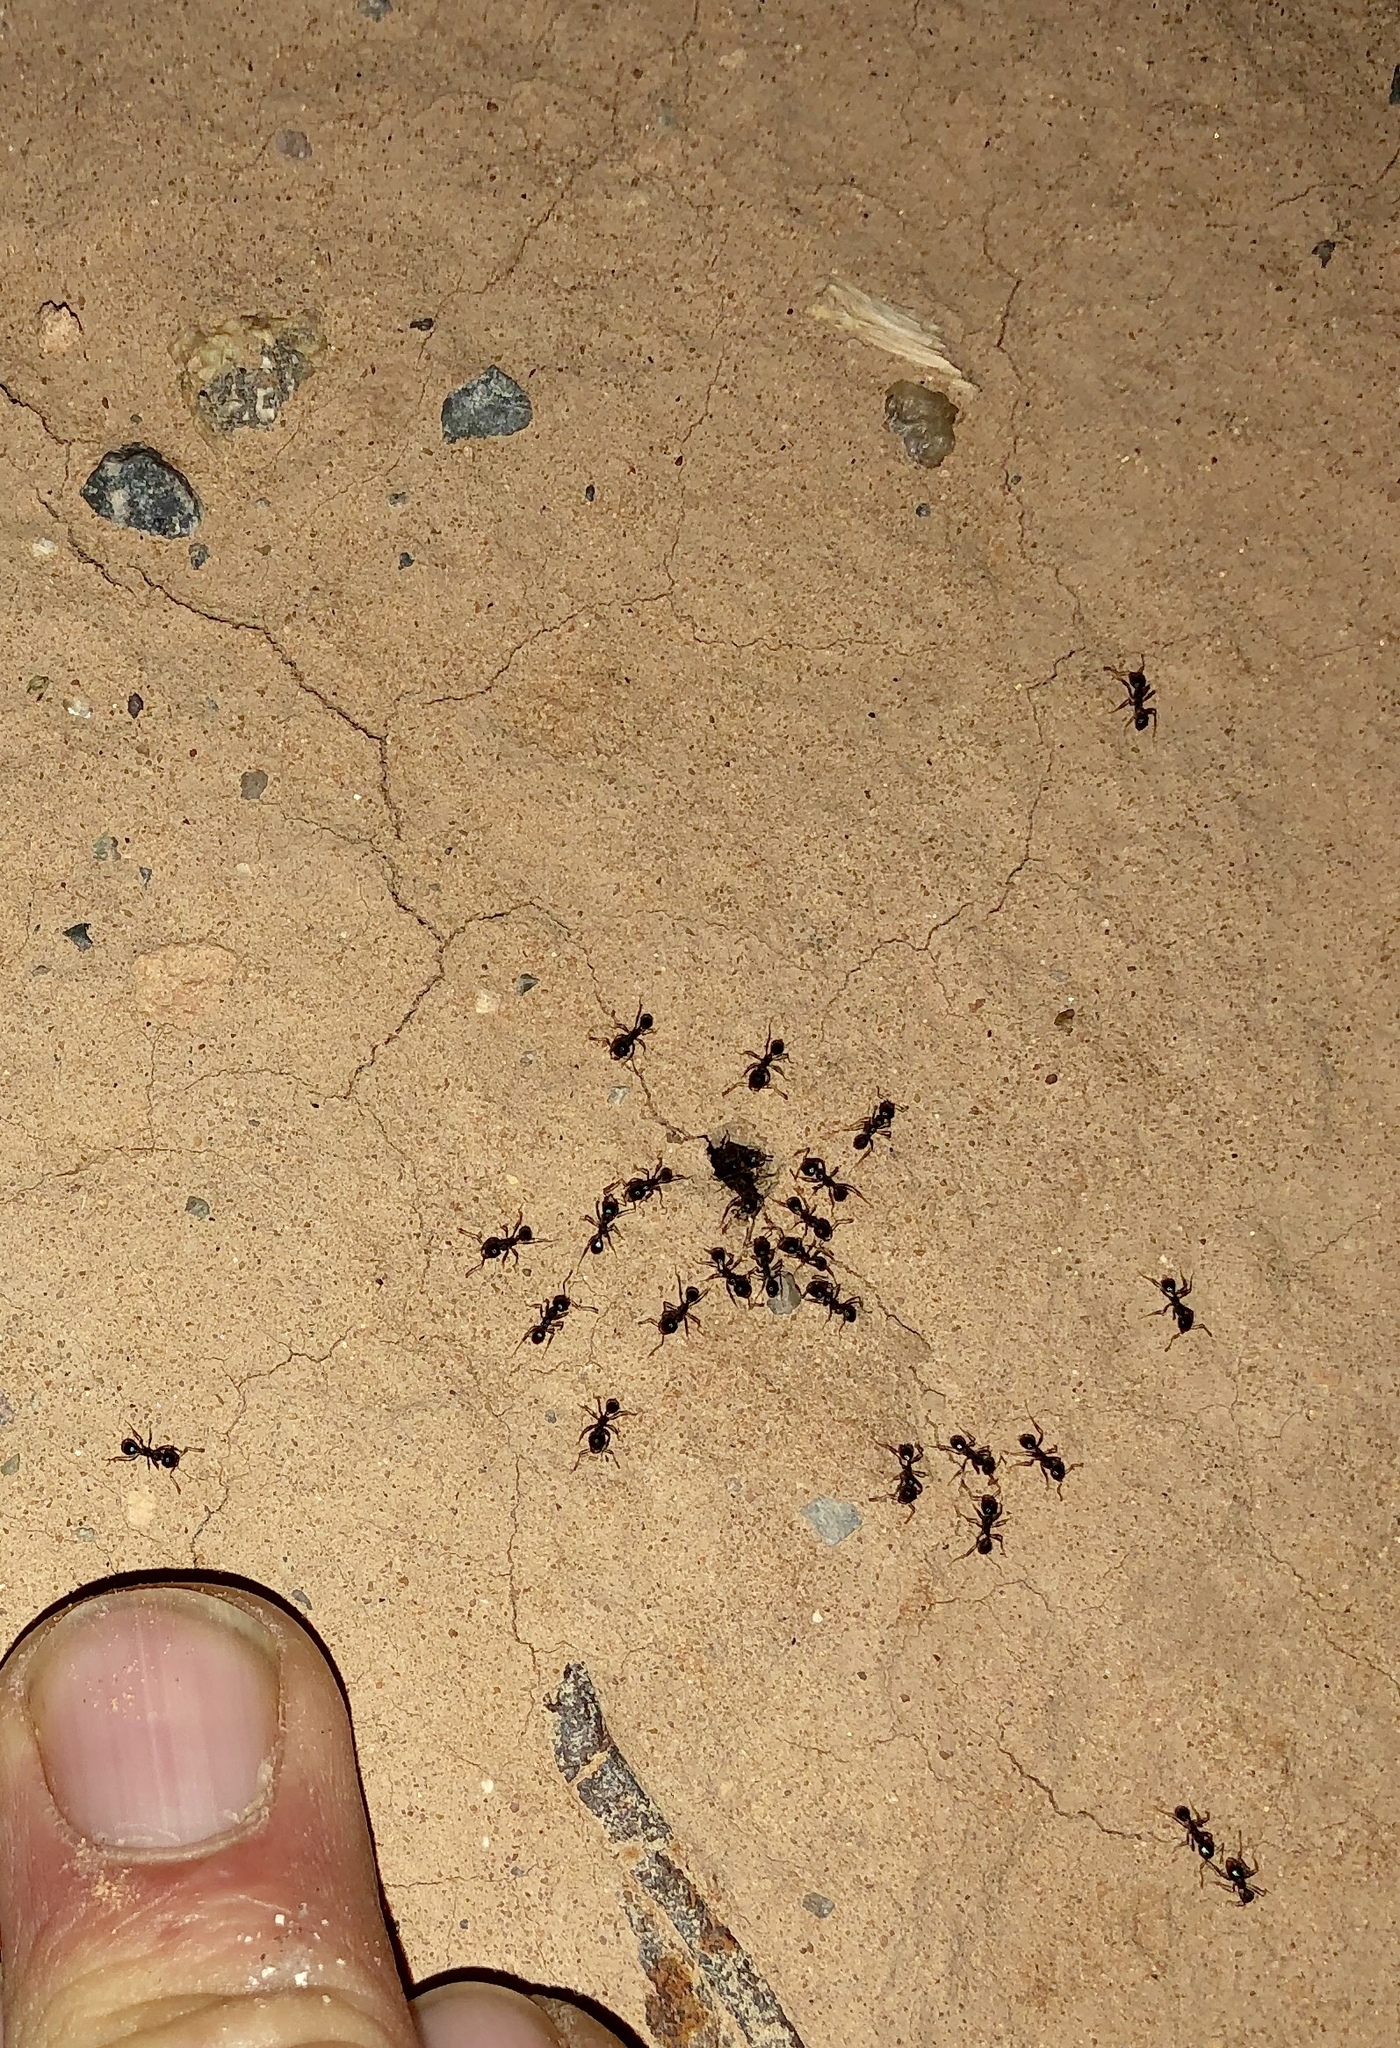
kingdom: Animalia
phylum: Arthropoda
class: Insecta
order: Hymenoptera
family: Formicidae
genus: Pogonomyrmex
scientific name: Pogonomyrmex rugosus
